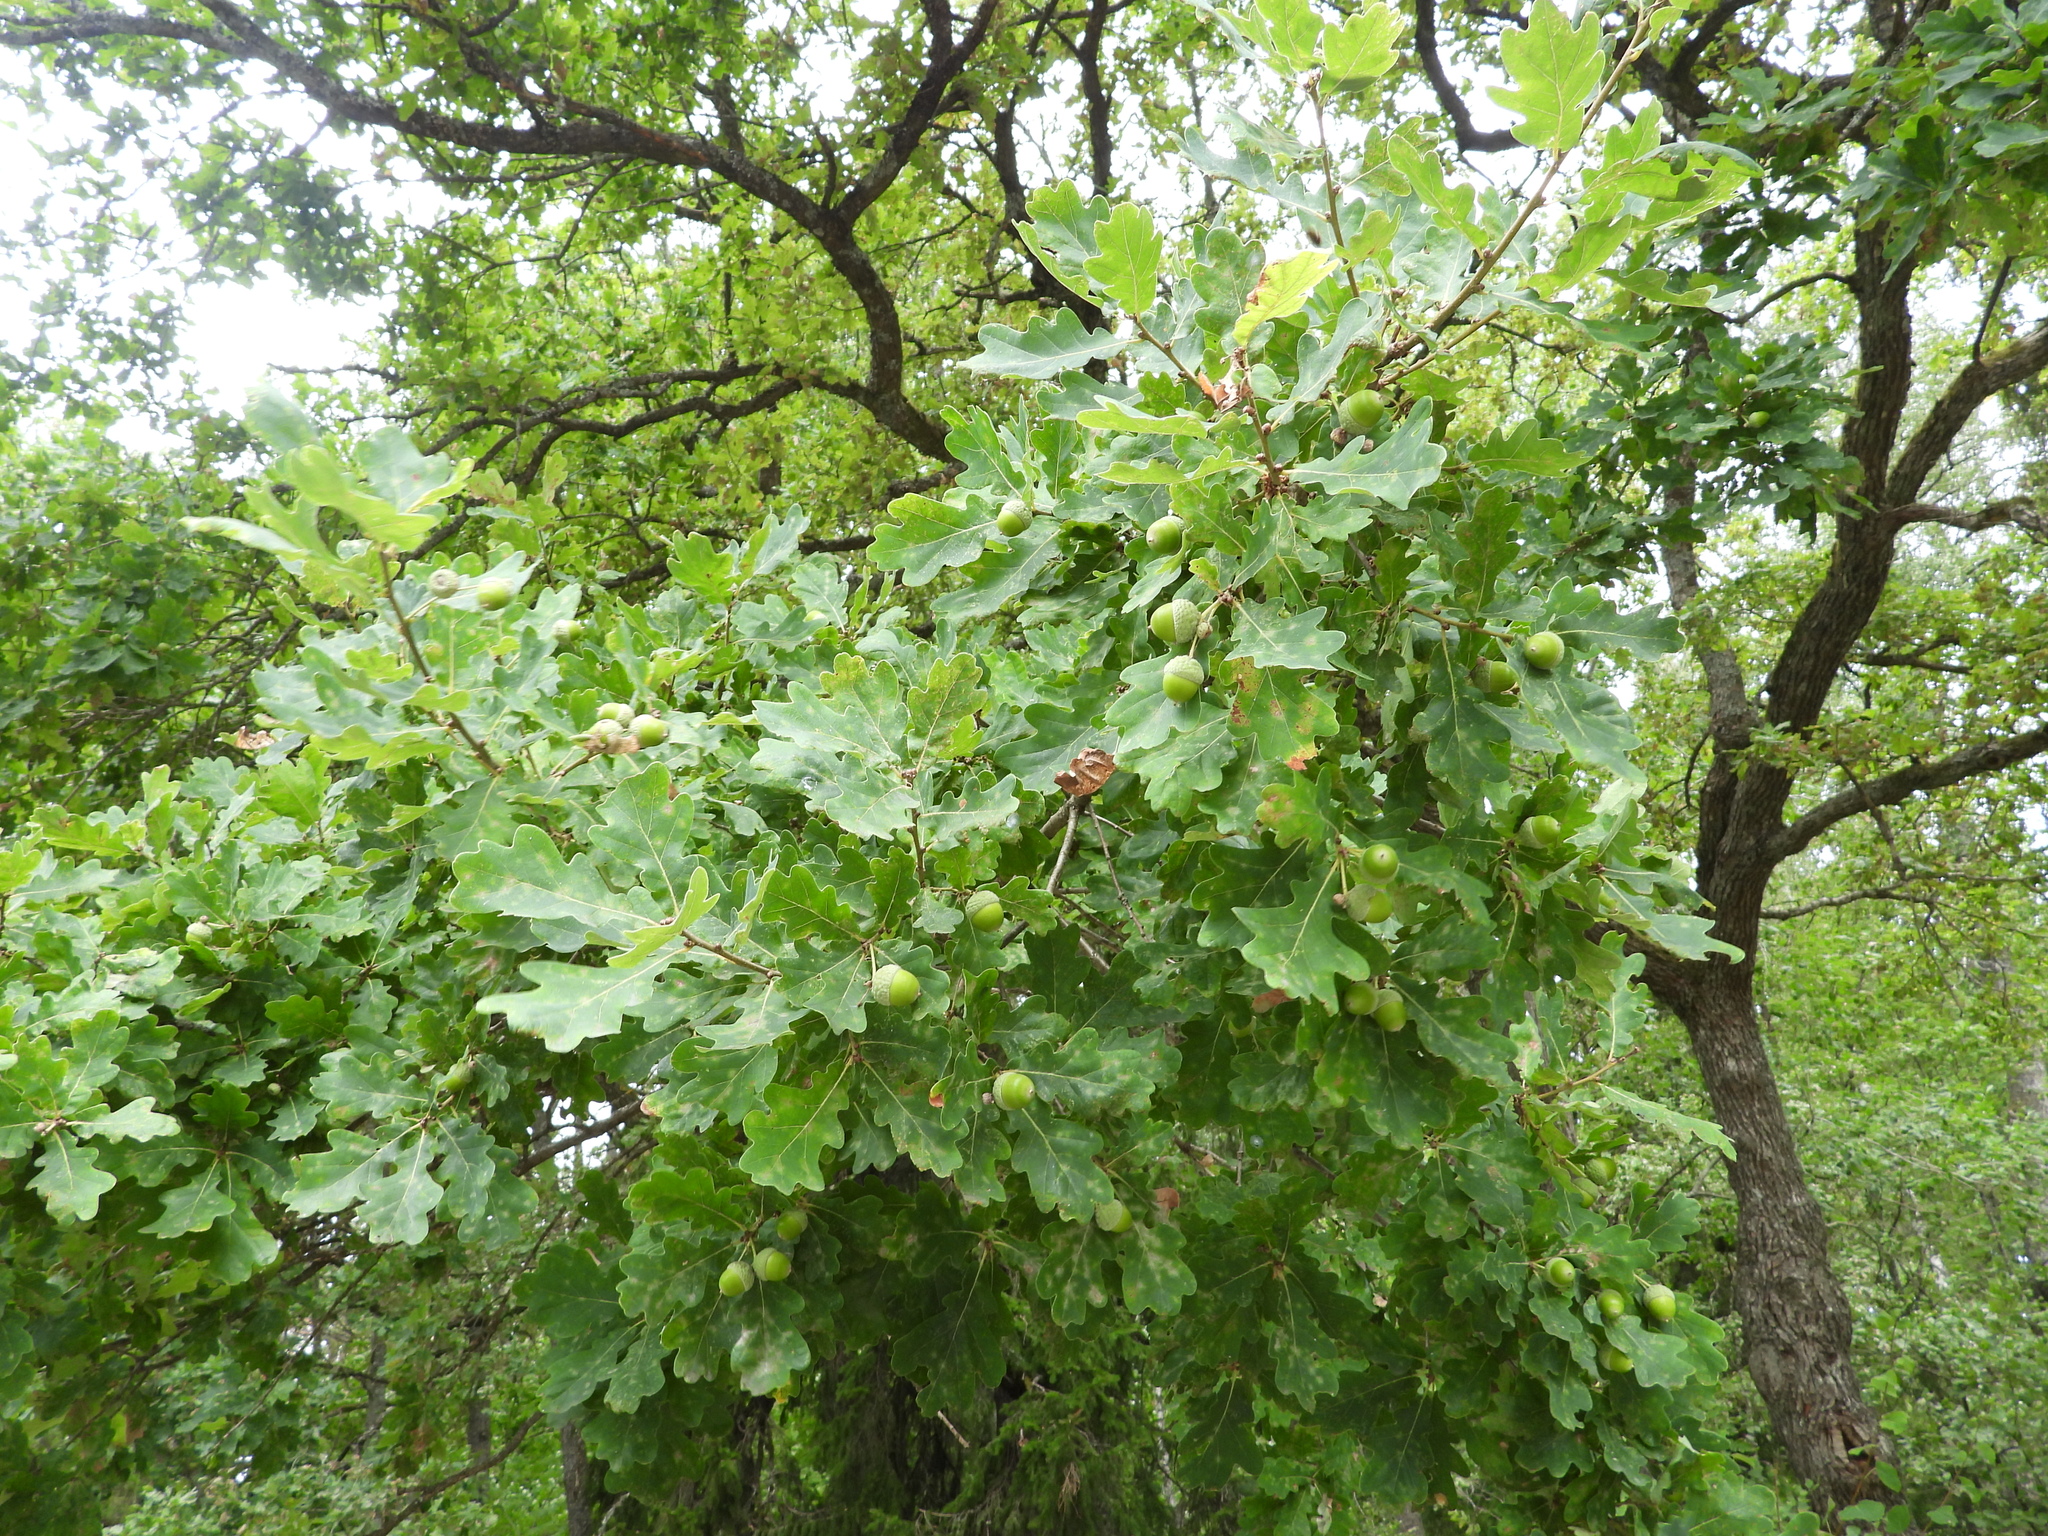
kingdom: Plantae
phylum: Tracheophyta
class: Magnoliopsida
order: Fagales
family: Fagaceae
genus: Quercus
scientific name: Quercus robur
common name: Pedunculate oak
